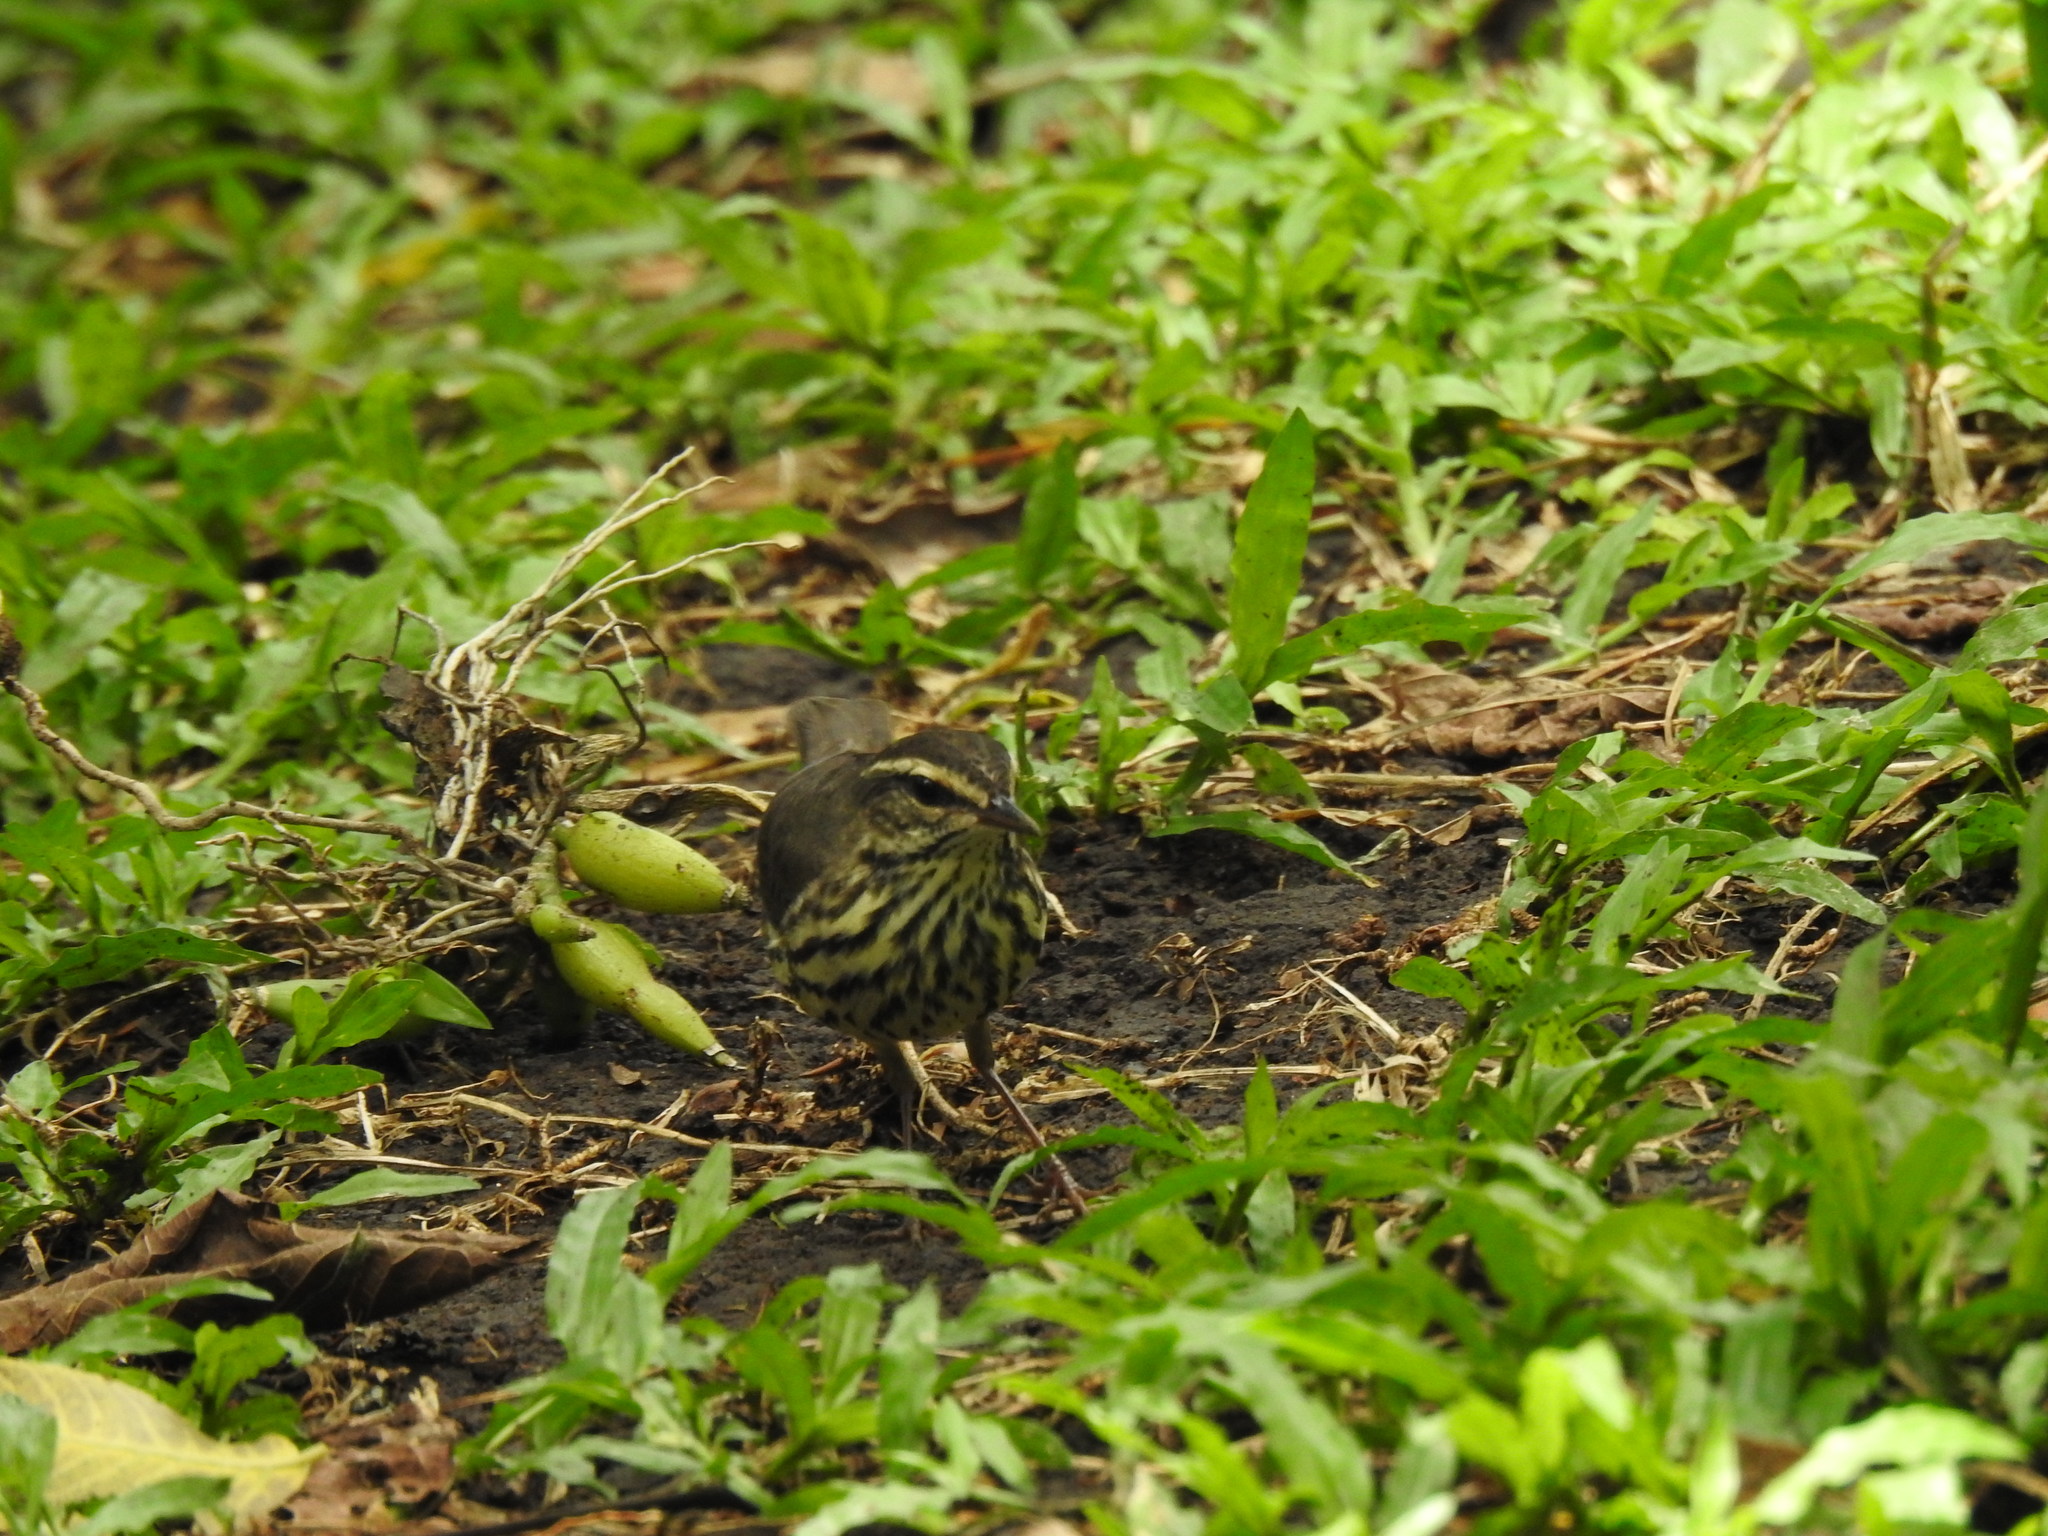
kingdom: Animalia
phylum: Chordata
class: Aves
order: Passeriformes
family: Parulidae
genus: Parkesia
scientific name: Parkesia noveboracensis
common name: Northern waterthrush
